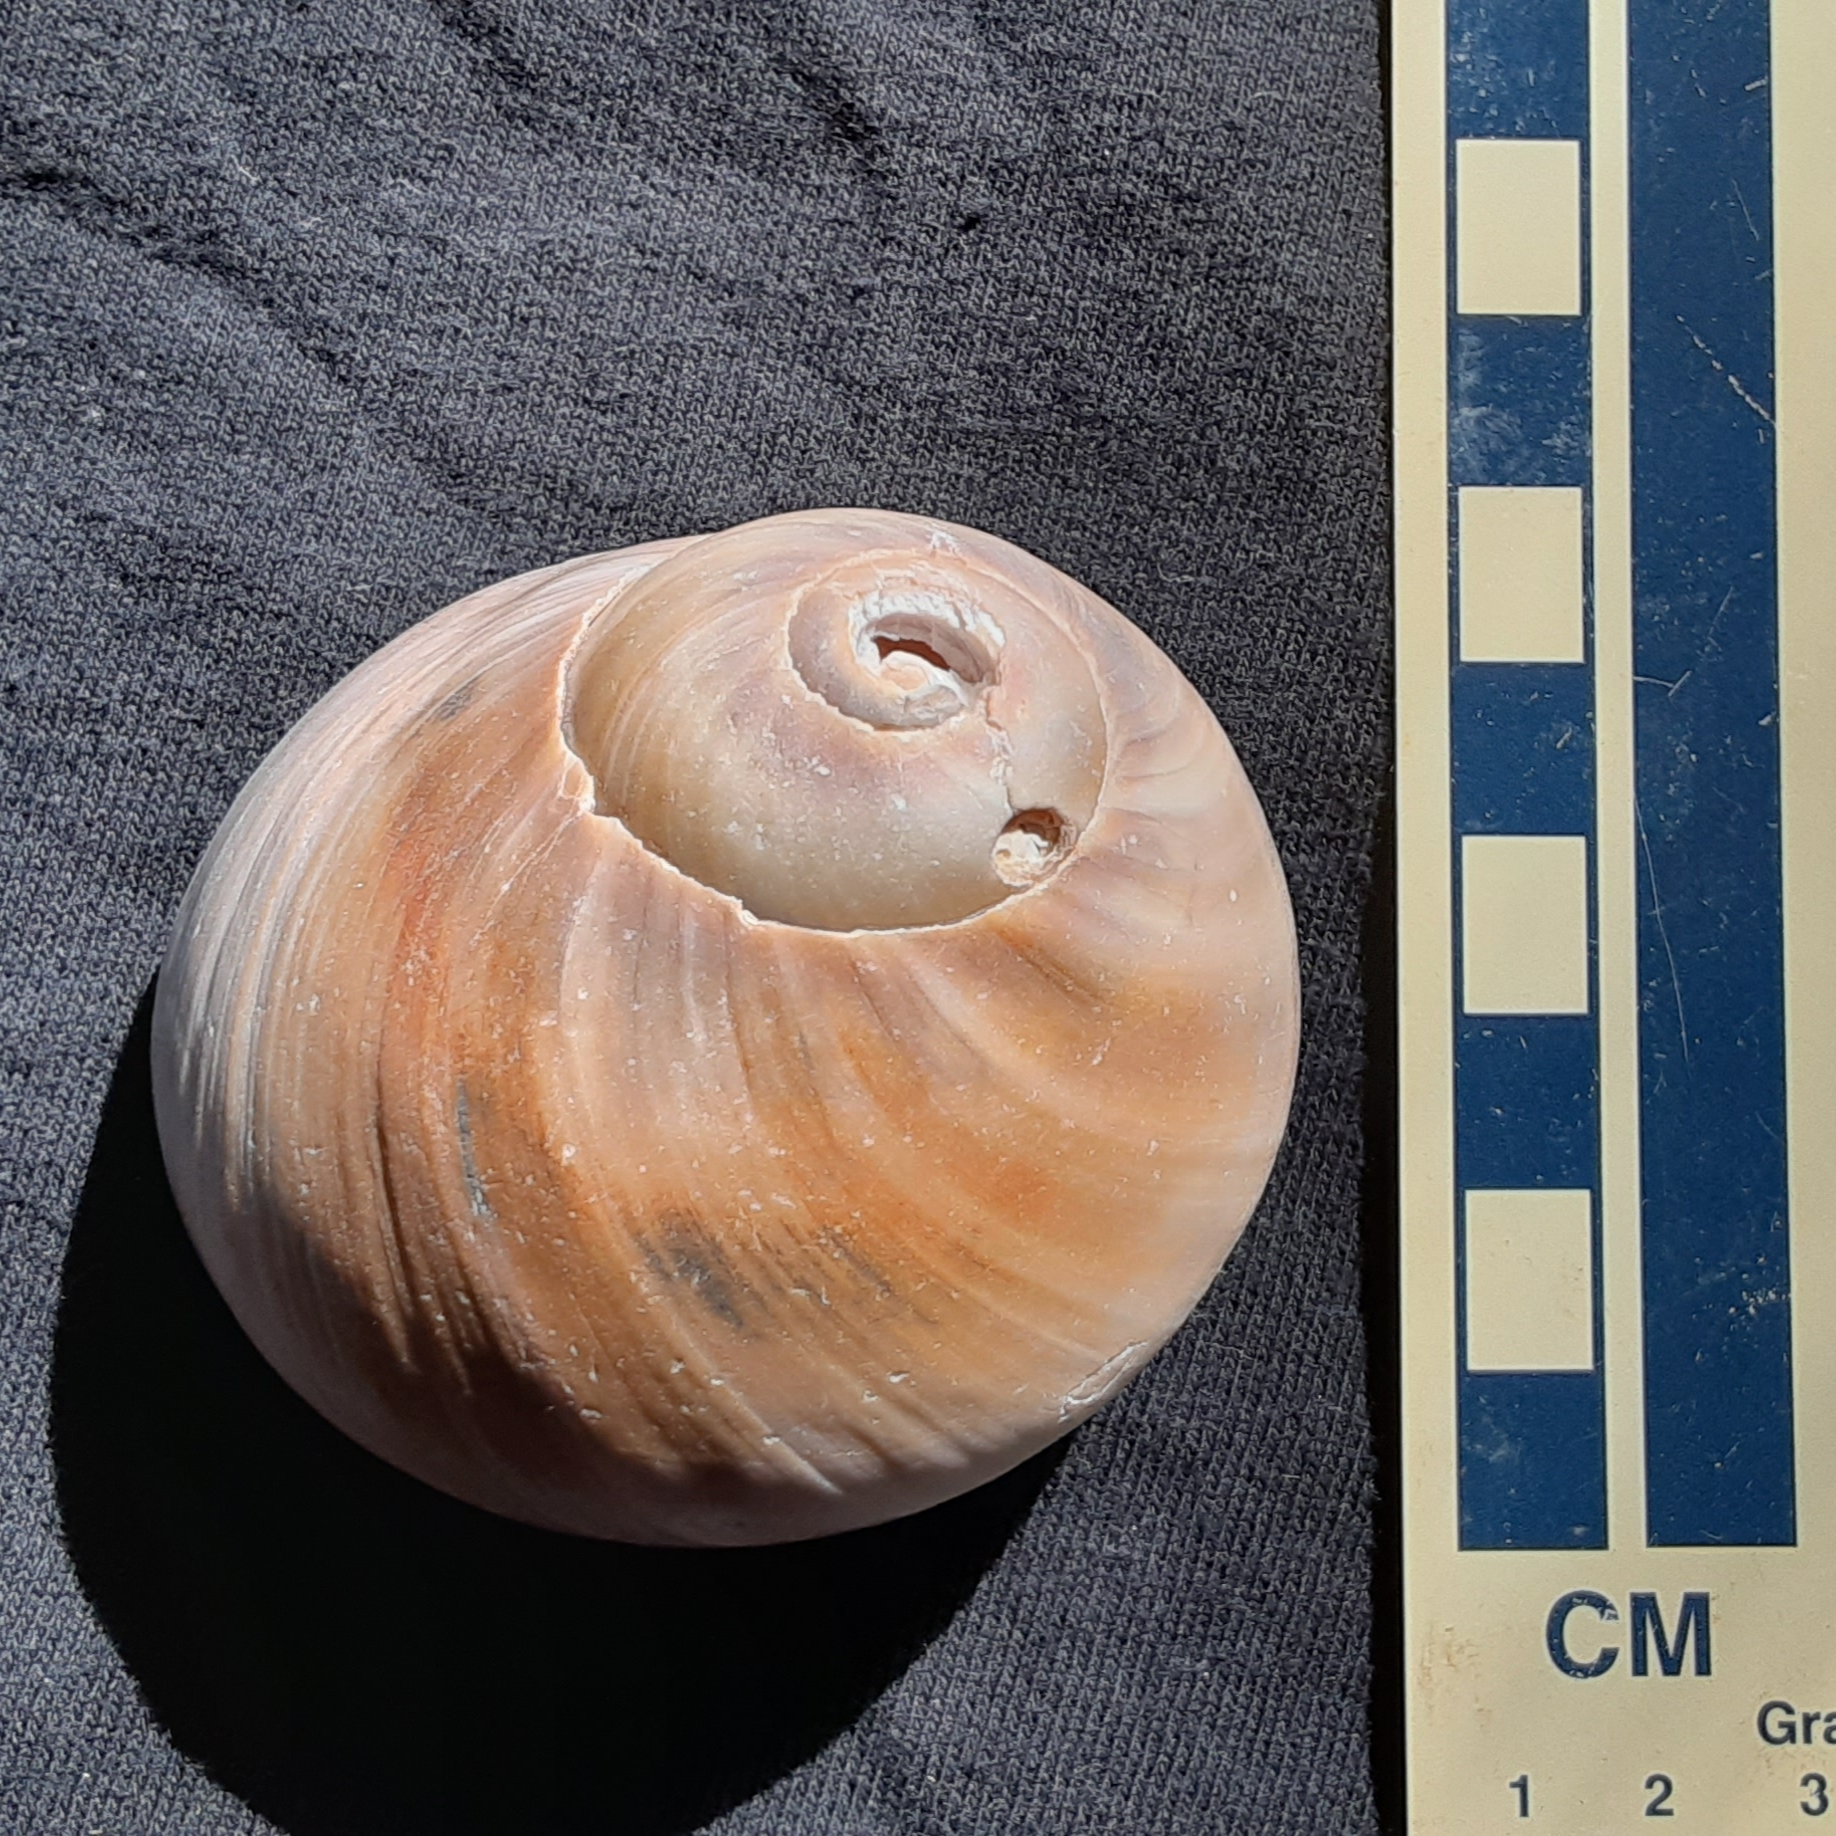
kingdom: Animalia
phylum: Mollusca
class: Gastropoda
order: Littorinimorpha
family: Naticidae
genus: Neverita
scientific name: Neverita duplicata
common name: Lobed moonsnail
